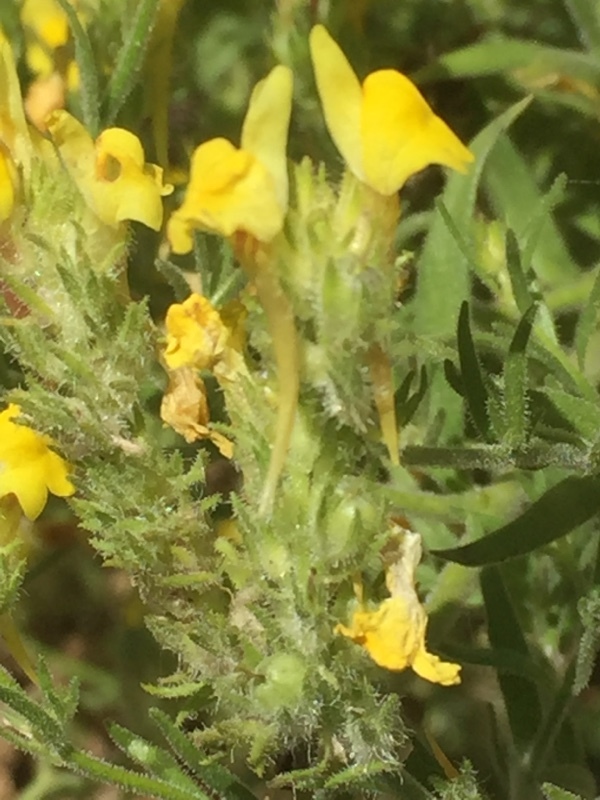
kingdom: Plantae
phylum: Tracheophyta
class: Magnoliopsida
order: Lamiales
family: Plantaginaceae
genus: Linaria
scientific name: Linaria saxatilis
